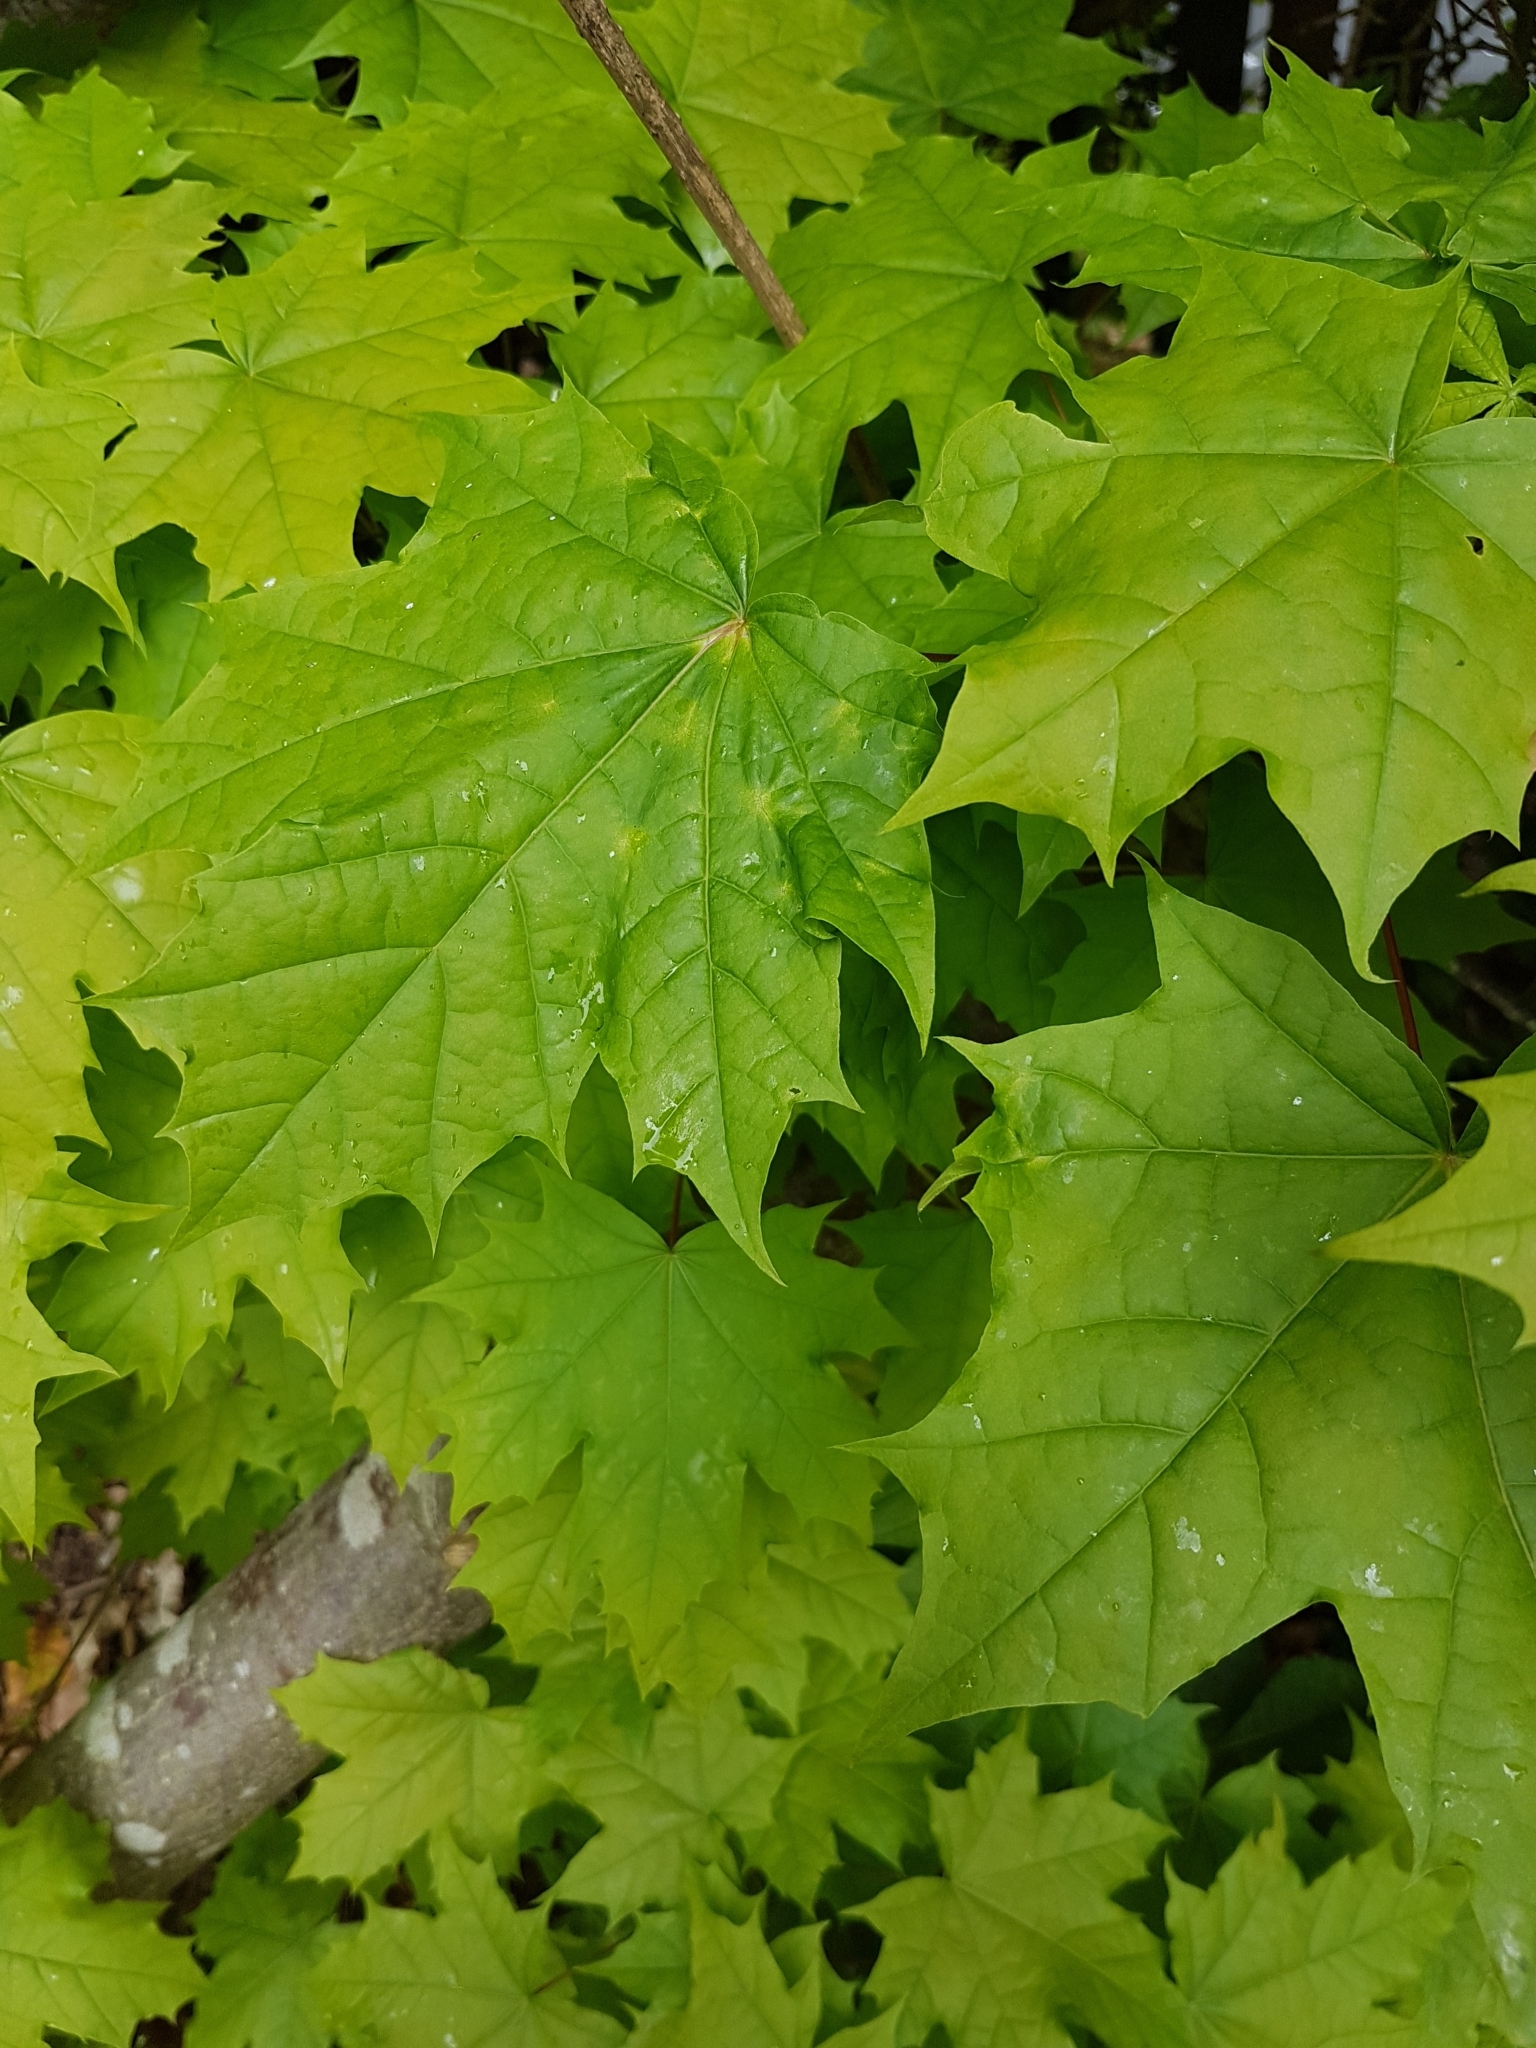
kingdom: Plantae
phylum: Tracheophyta
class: Magnoliopsida
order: Sapindales
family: Sapindaceae
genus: Acer
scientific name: Acer platanoides
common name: Norway maple
